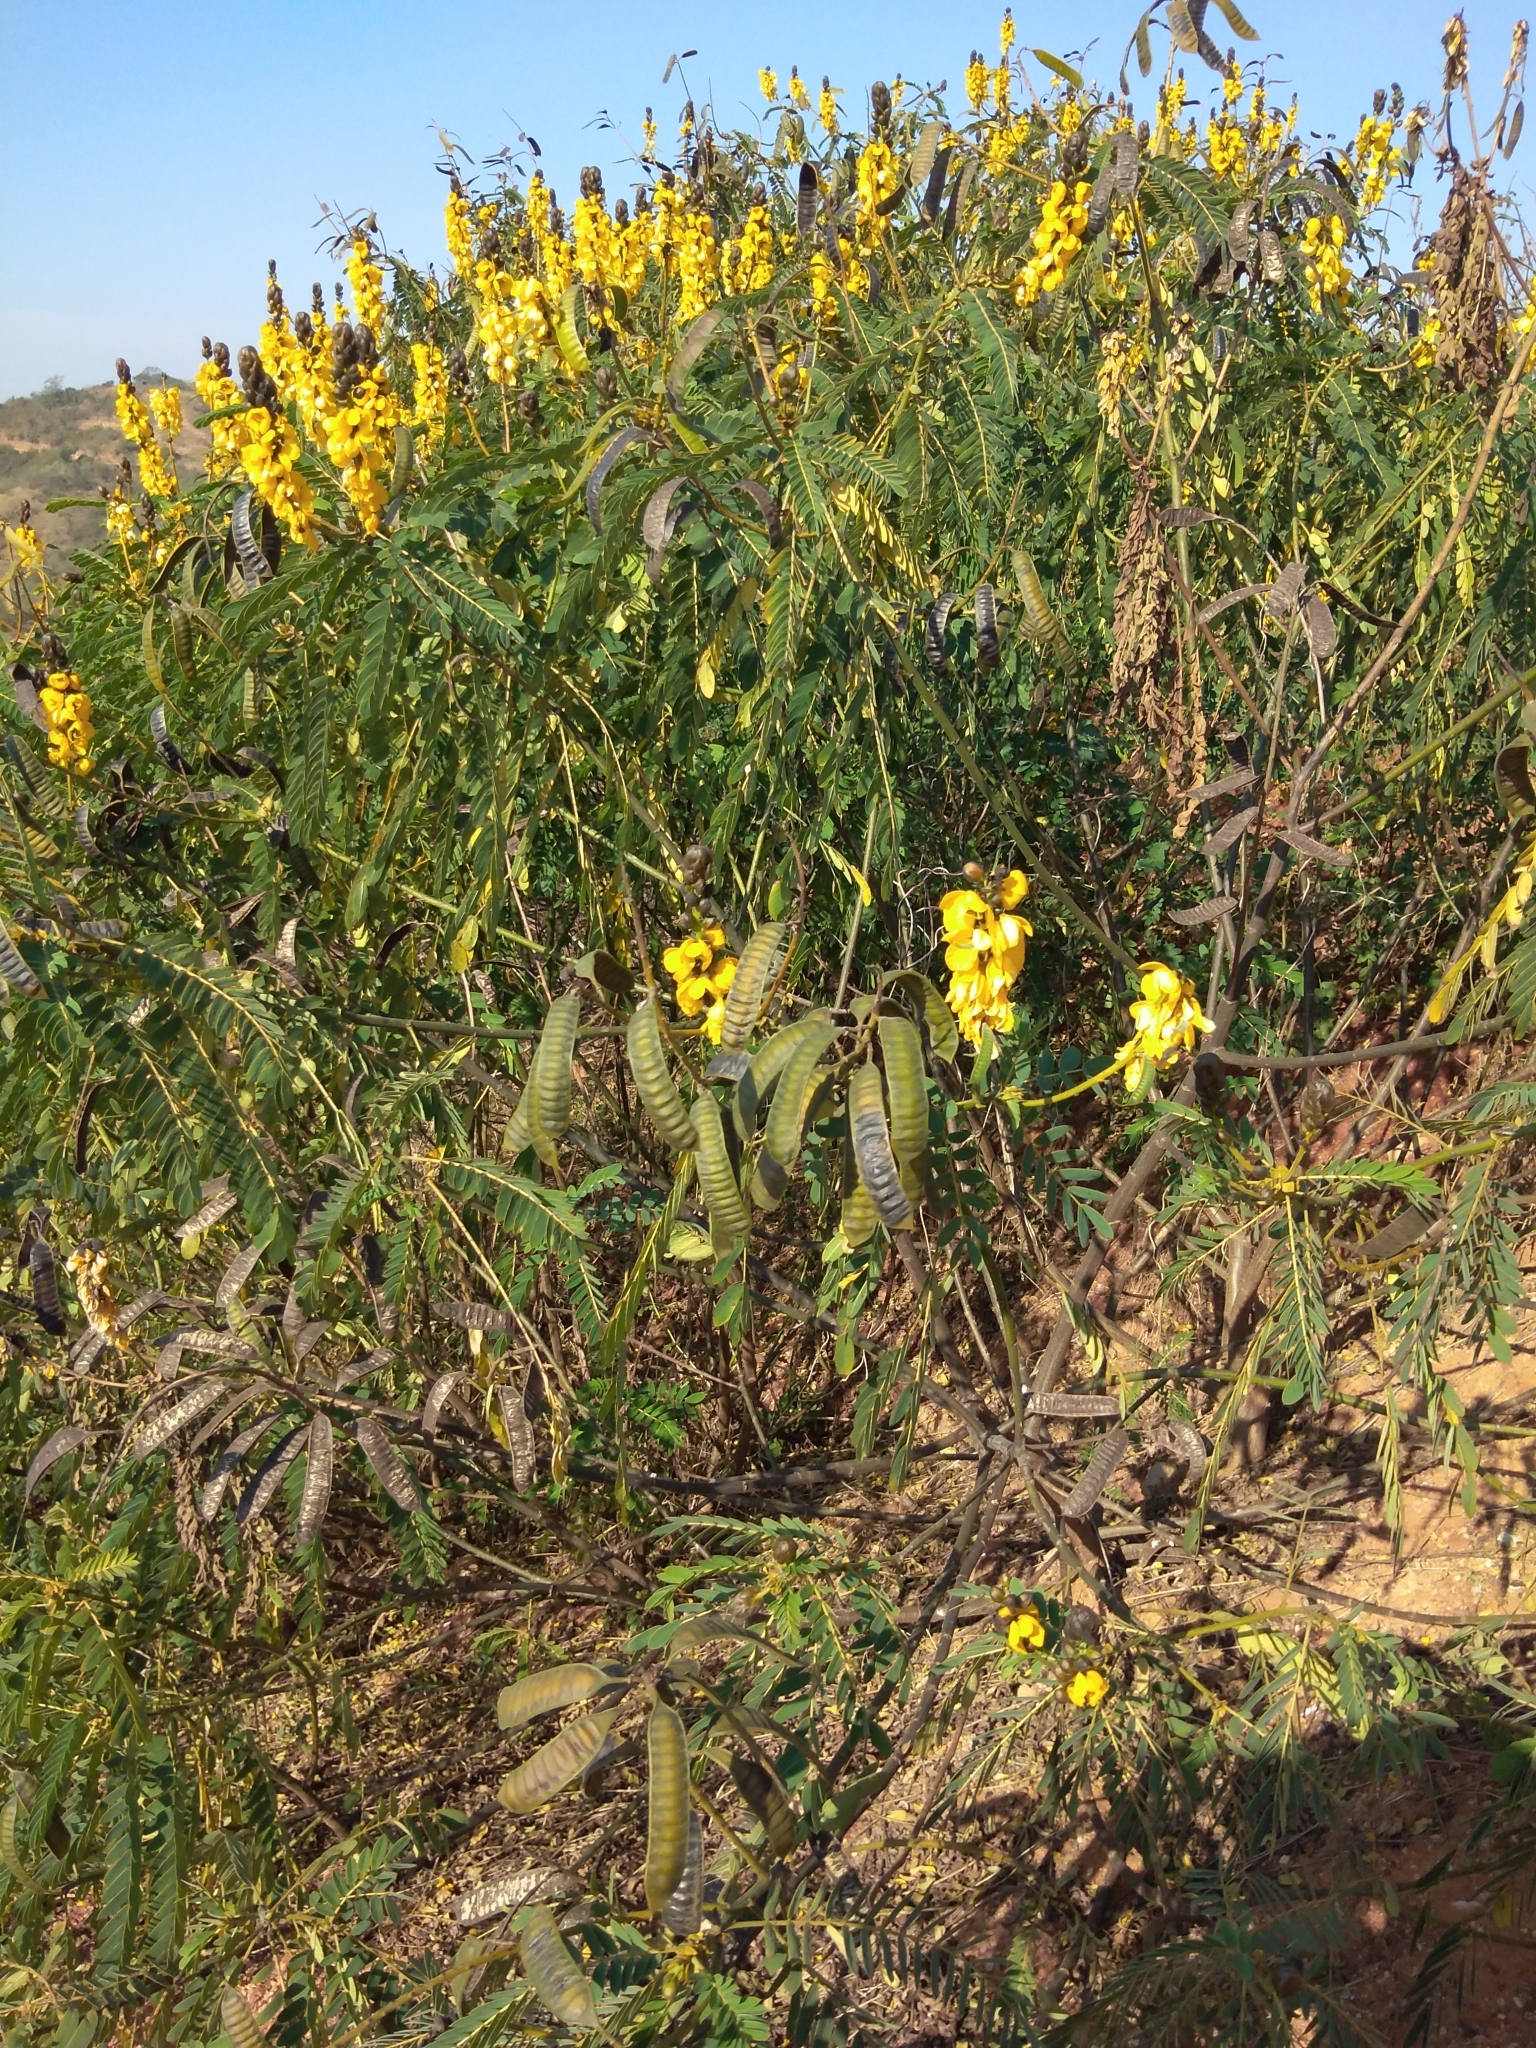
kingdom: Plantae
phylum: Tracheophyta
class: Magnoliopsida
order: Fabales
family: Fabaceae
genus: Senna
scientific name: Senna didymobotrya
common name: African senna
